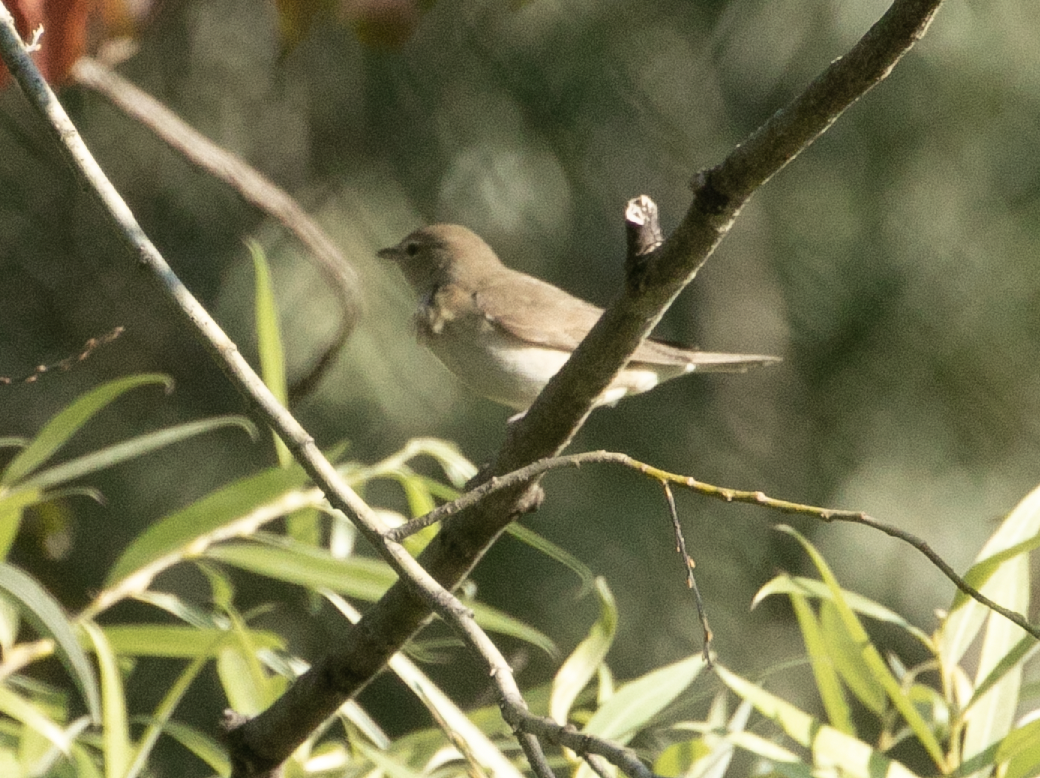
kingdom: Animalia
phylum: Chordata
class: Aves
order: Passeriformes
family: Sylviidae
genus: Sylvia
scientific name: Sylvia borin
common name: Garden warbler
